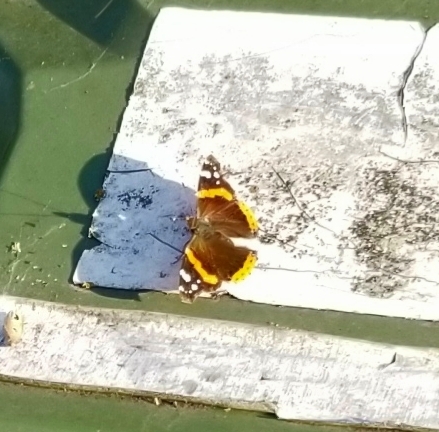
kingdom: Animalia
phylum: Arthropoda
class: Insecta
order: Lepidoptera
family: Nymphalidae
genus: Vanessa
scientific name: Vanessa atalanta
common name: Red admiral
